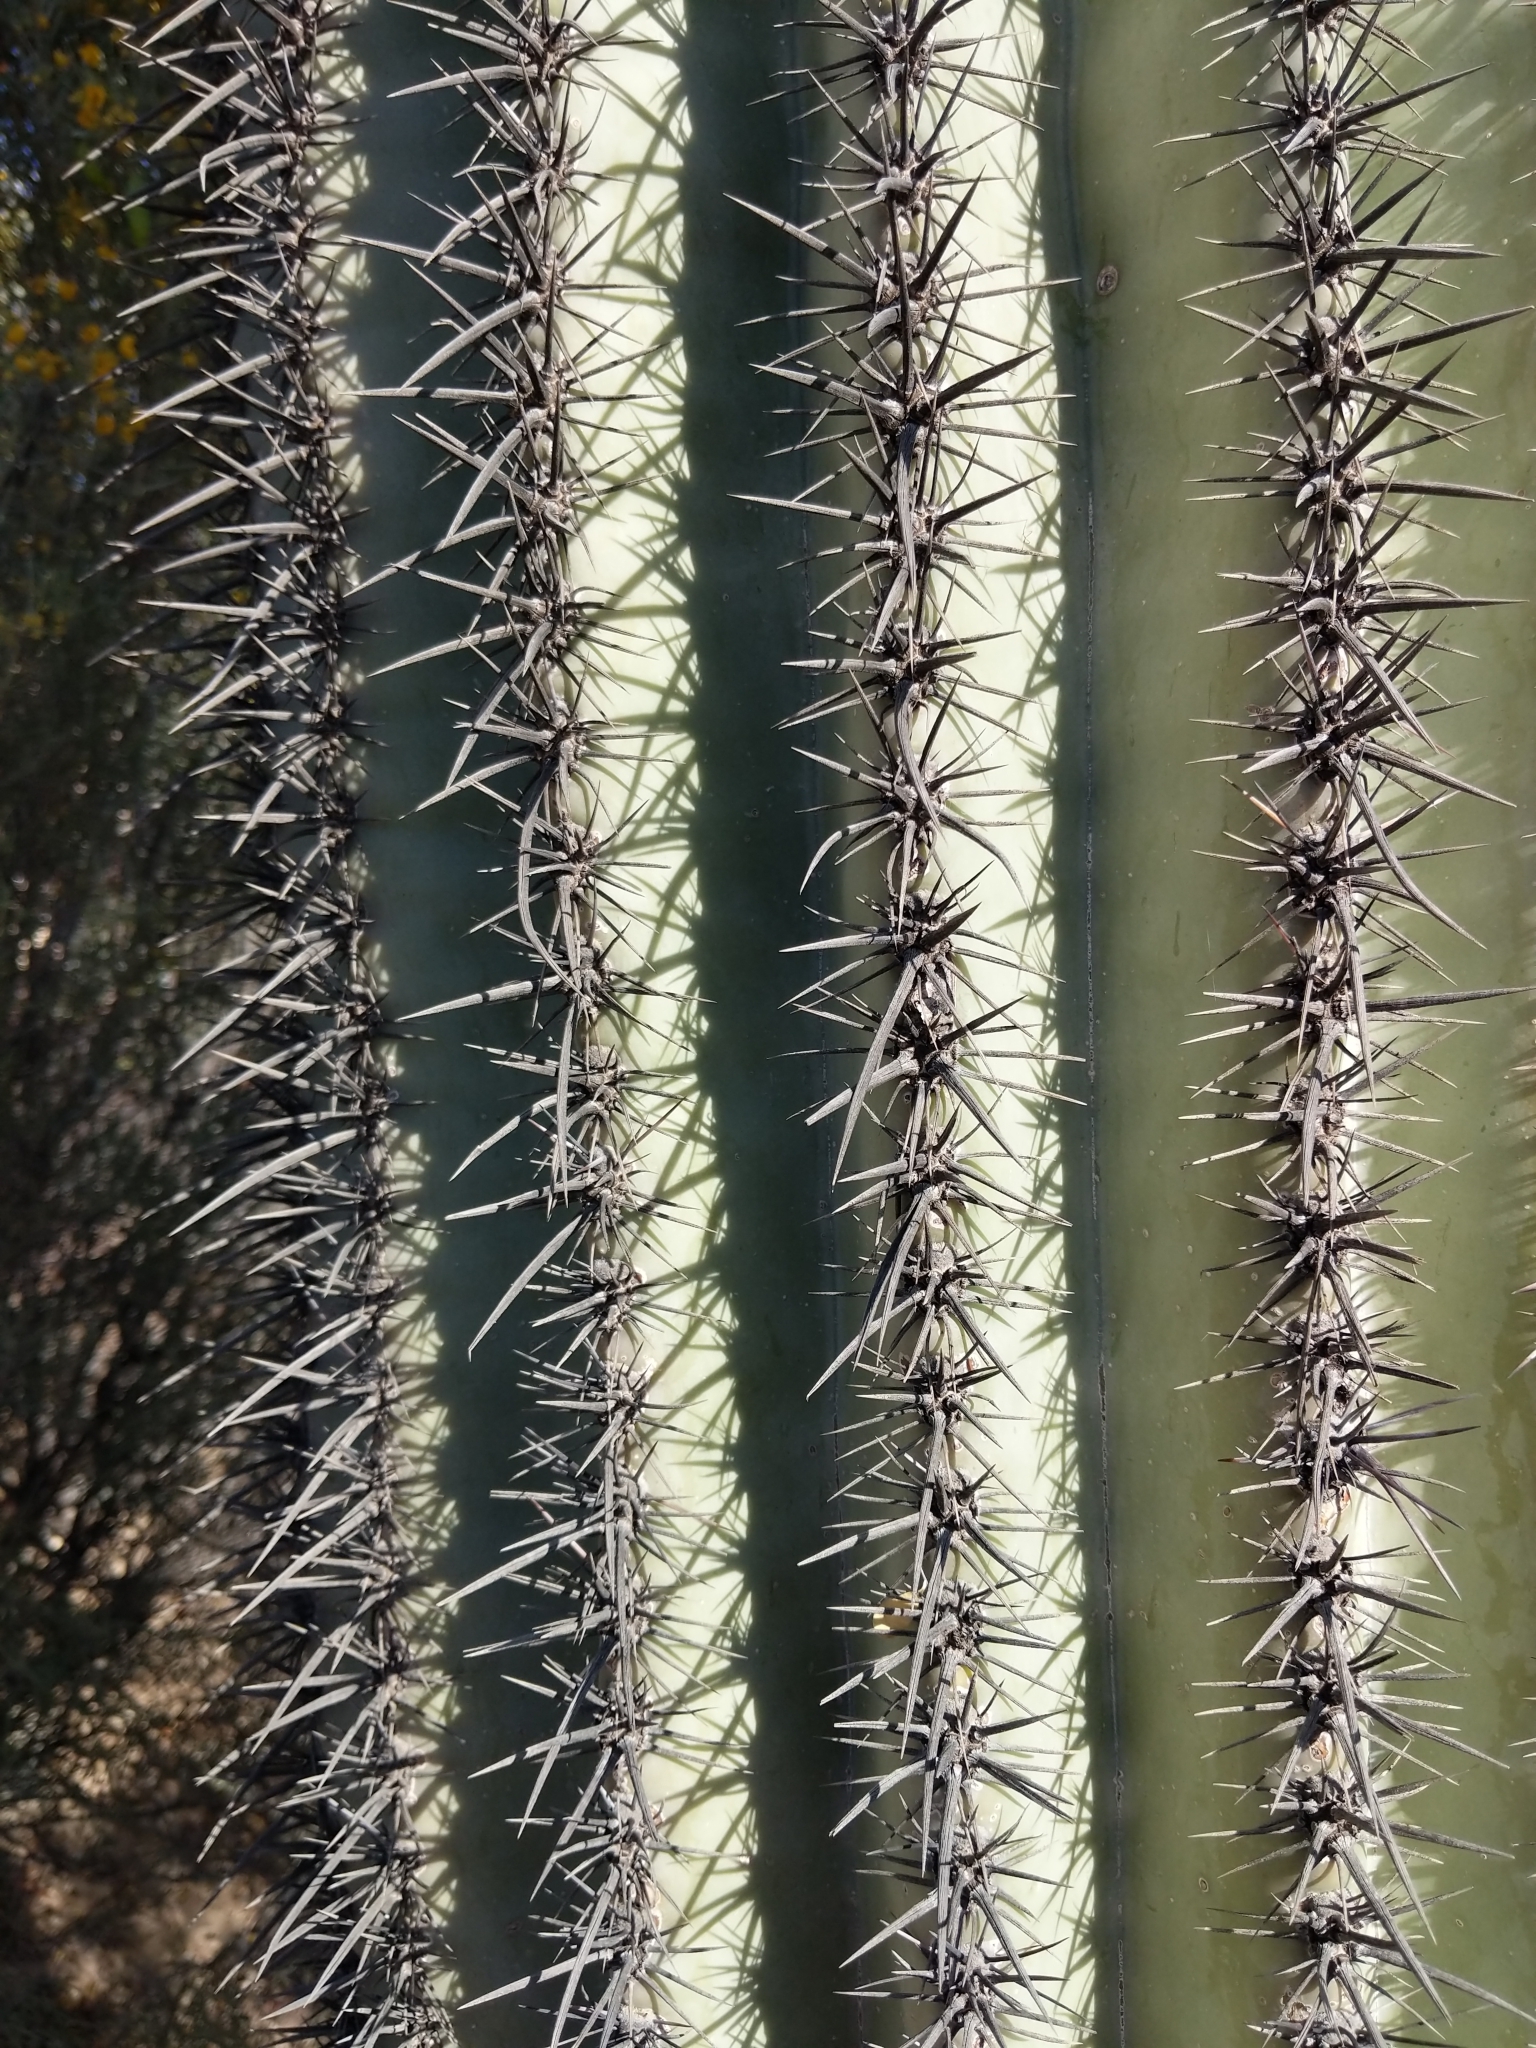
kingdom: Plantae
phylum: Tracheophyta
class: Magnoliopsida
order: Caryophyllales
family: Cactaceae
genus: Carnegiea
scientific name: Carnegiea gigantea
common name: Saguaro
